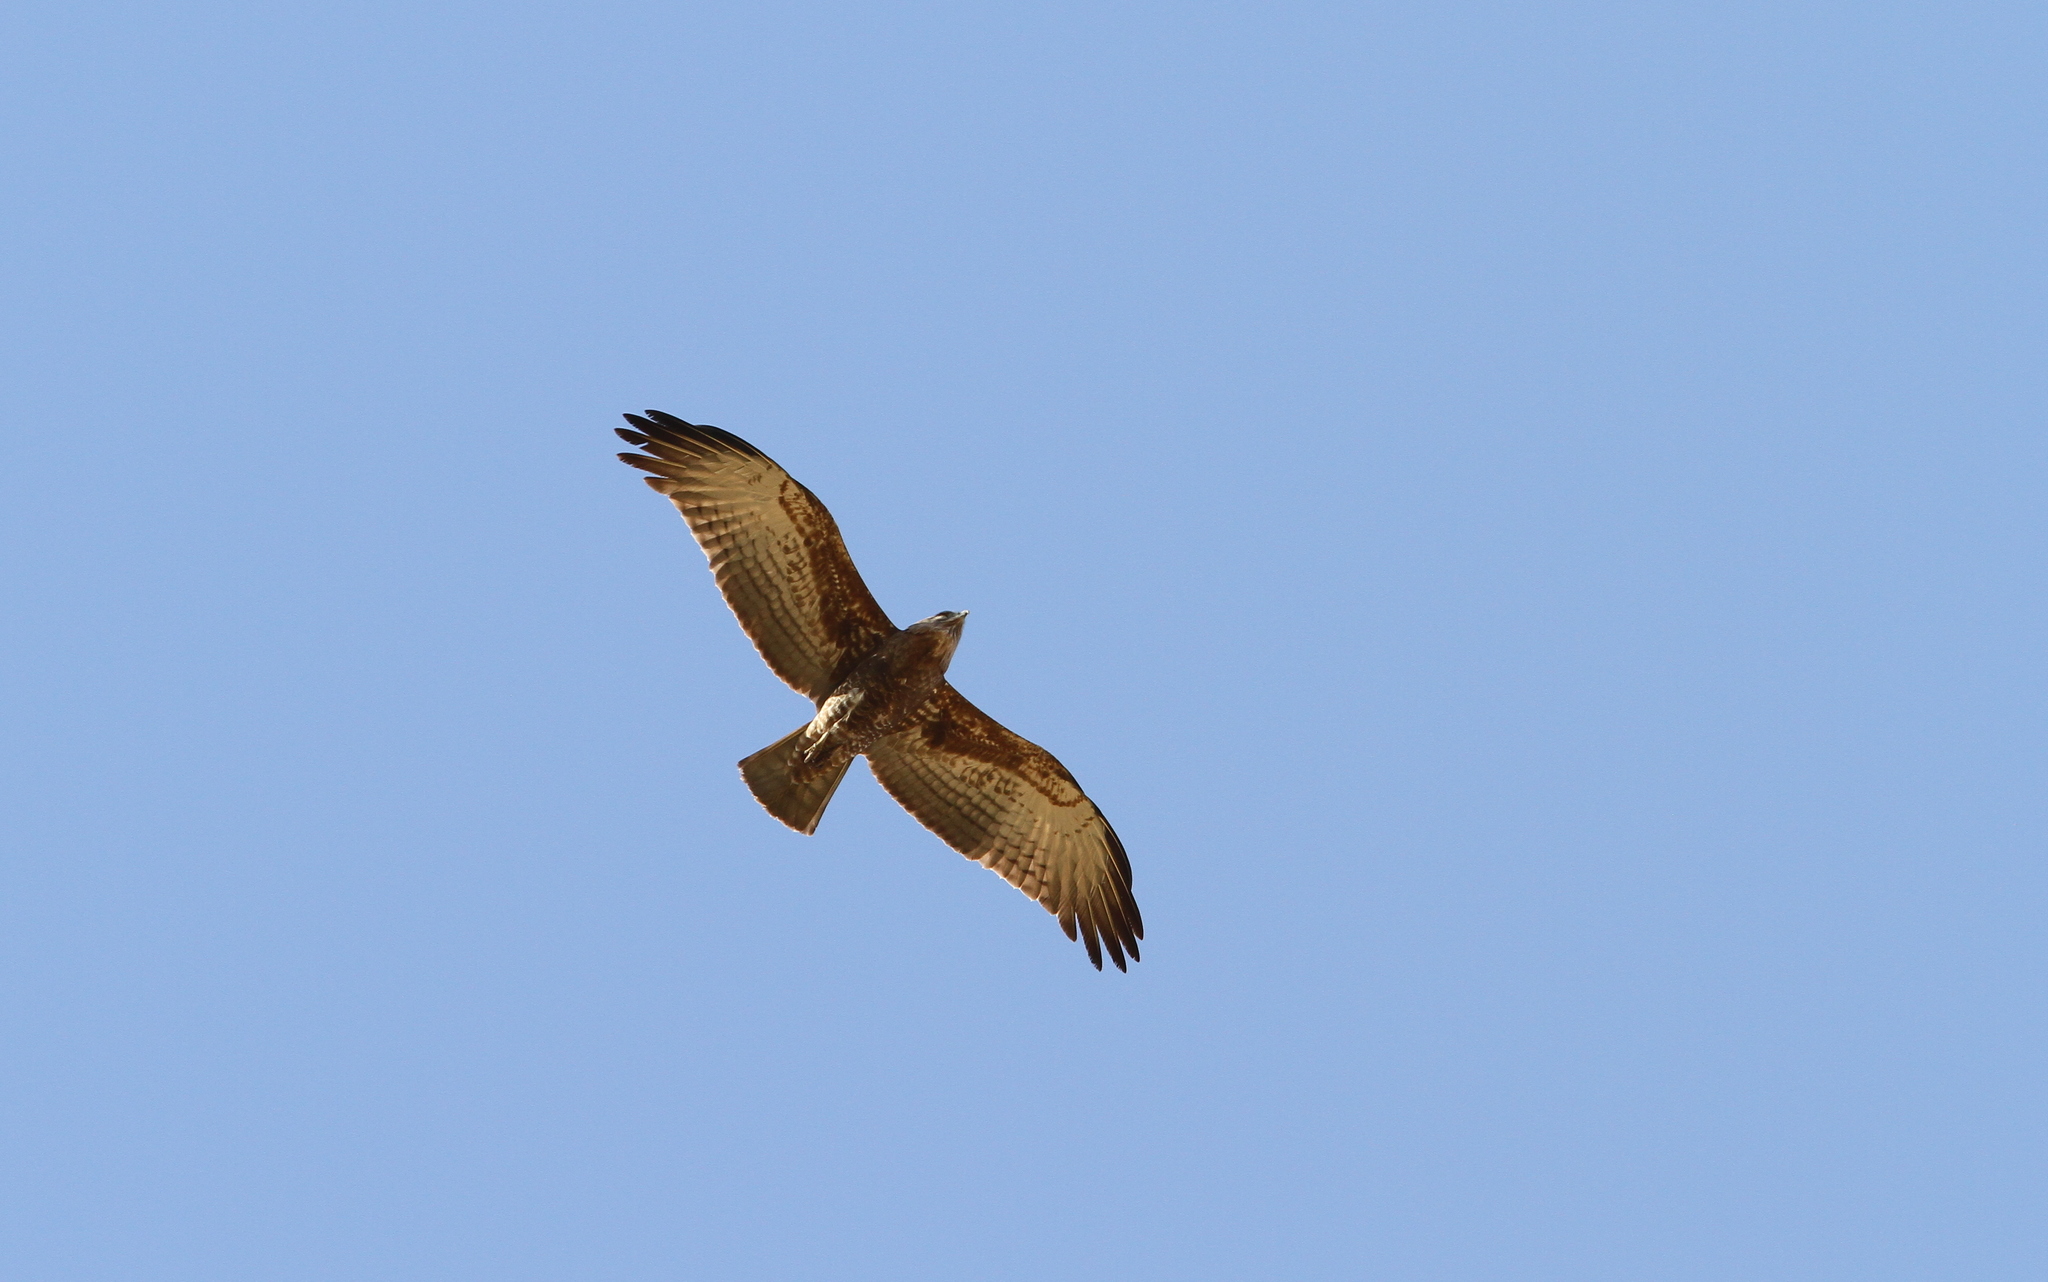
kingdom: Animalia
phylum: Chordata
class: Aves
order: Accipitriformes
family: Accipitridae
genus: Circaetus
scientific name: Circaetus beaudouini
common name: Beaudouin's snake eagle
